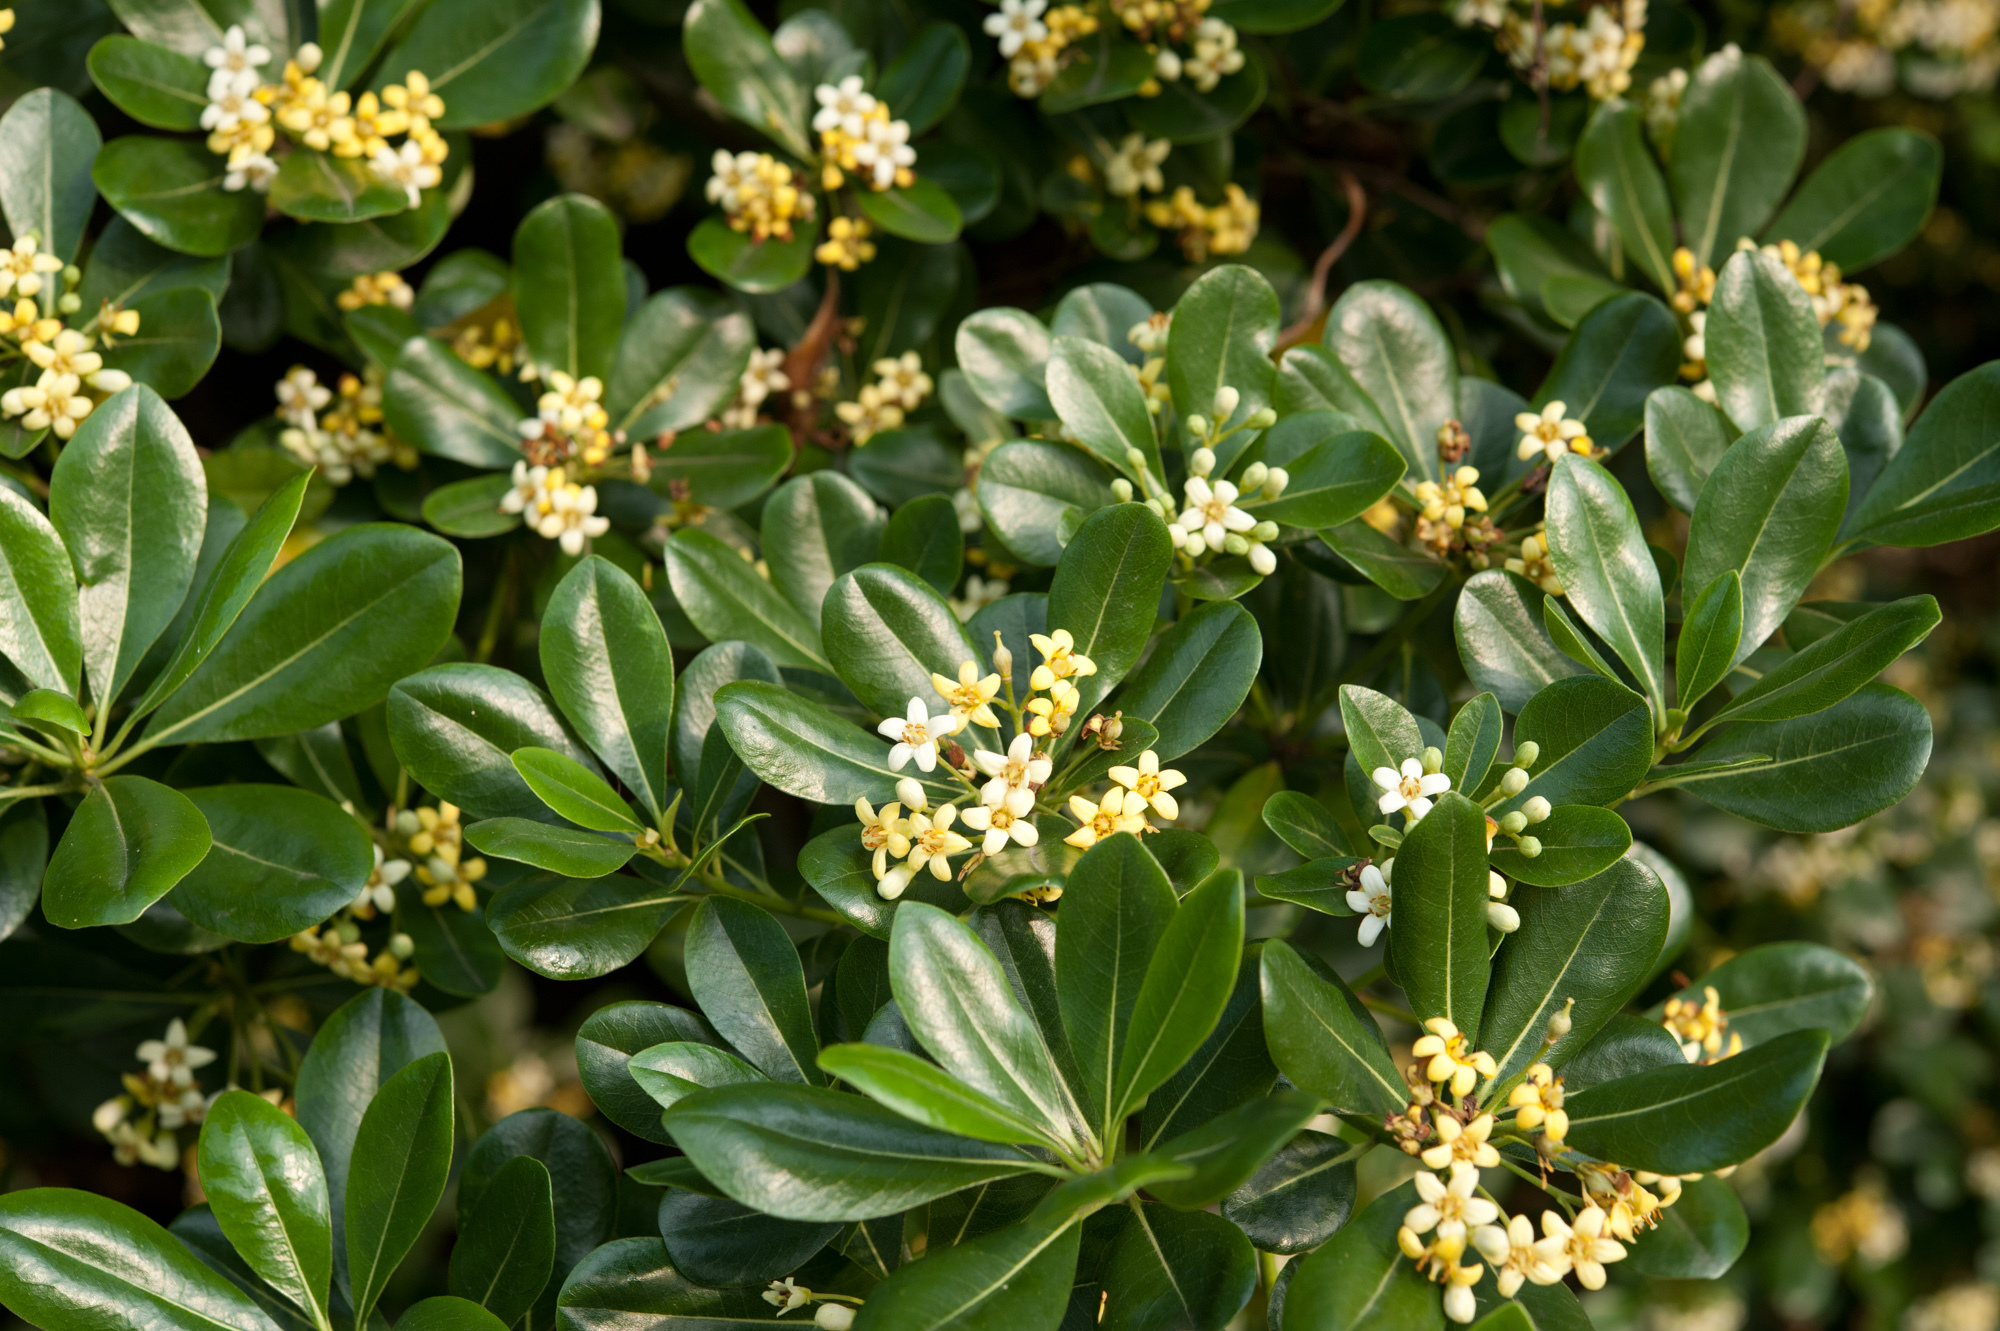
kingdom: Plantae
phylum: Tracheophyta
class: Magnoliopsida
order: Apiales
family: Pittosporaceae
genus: Pittosporum
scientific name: Pittosporum tobira
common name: Japanese cheesewood
